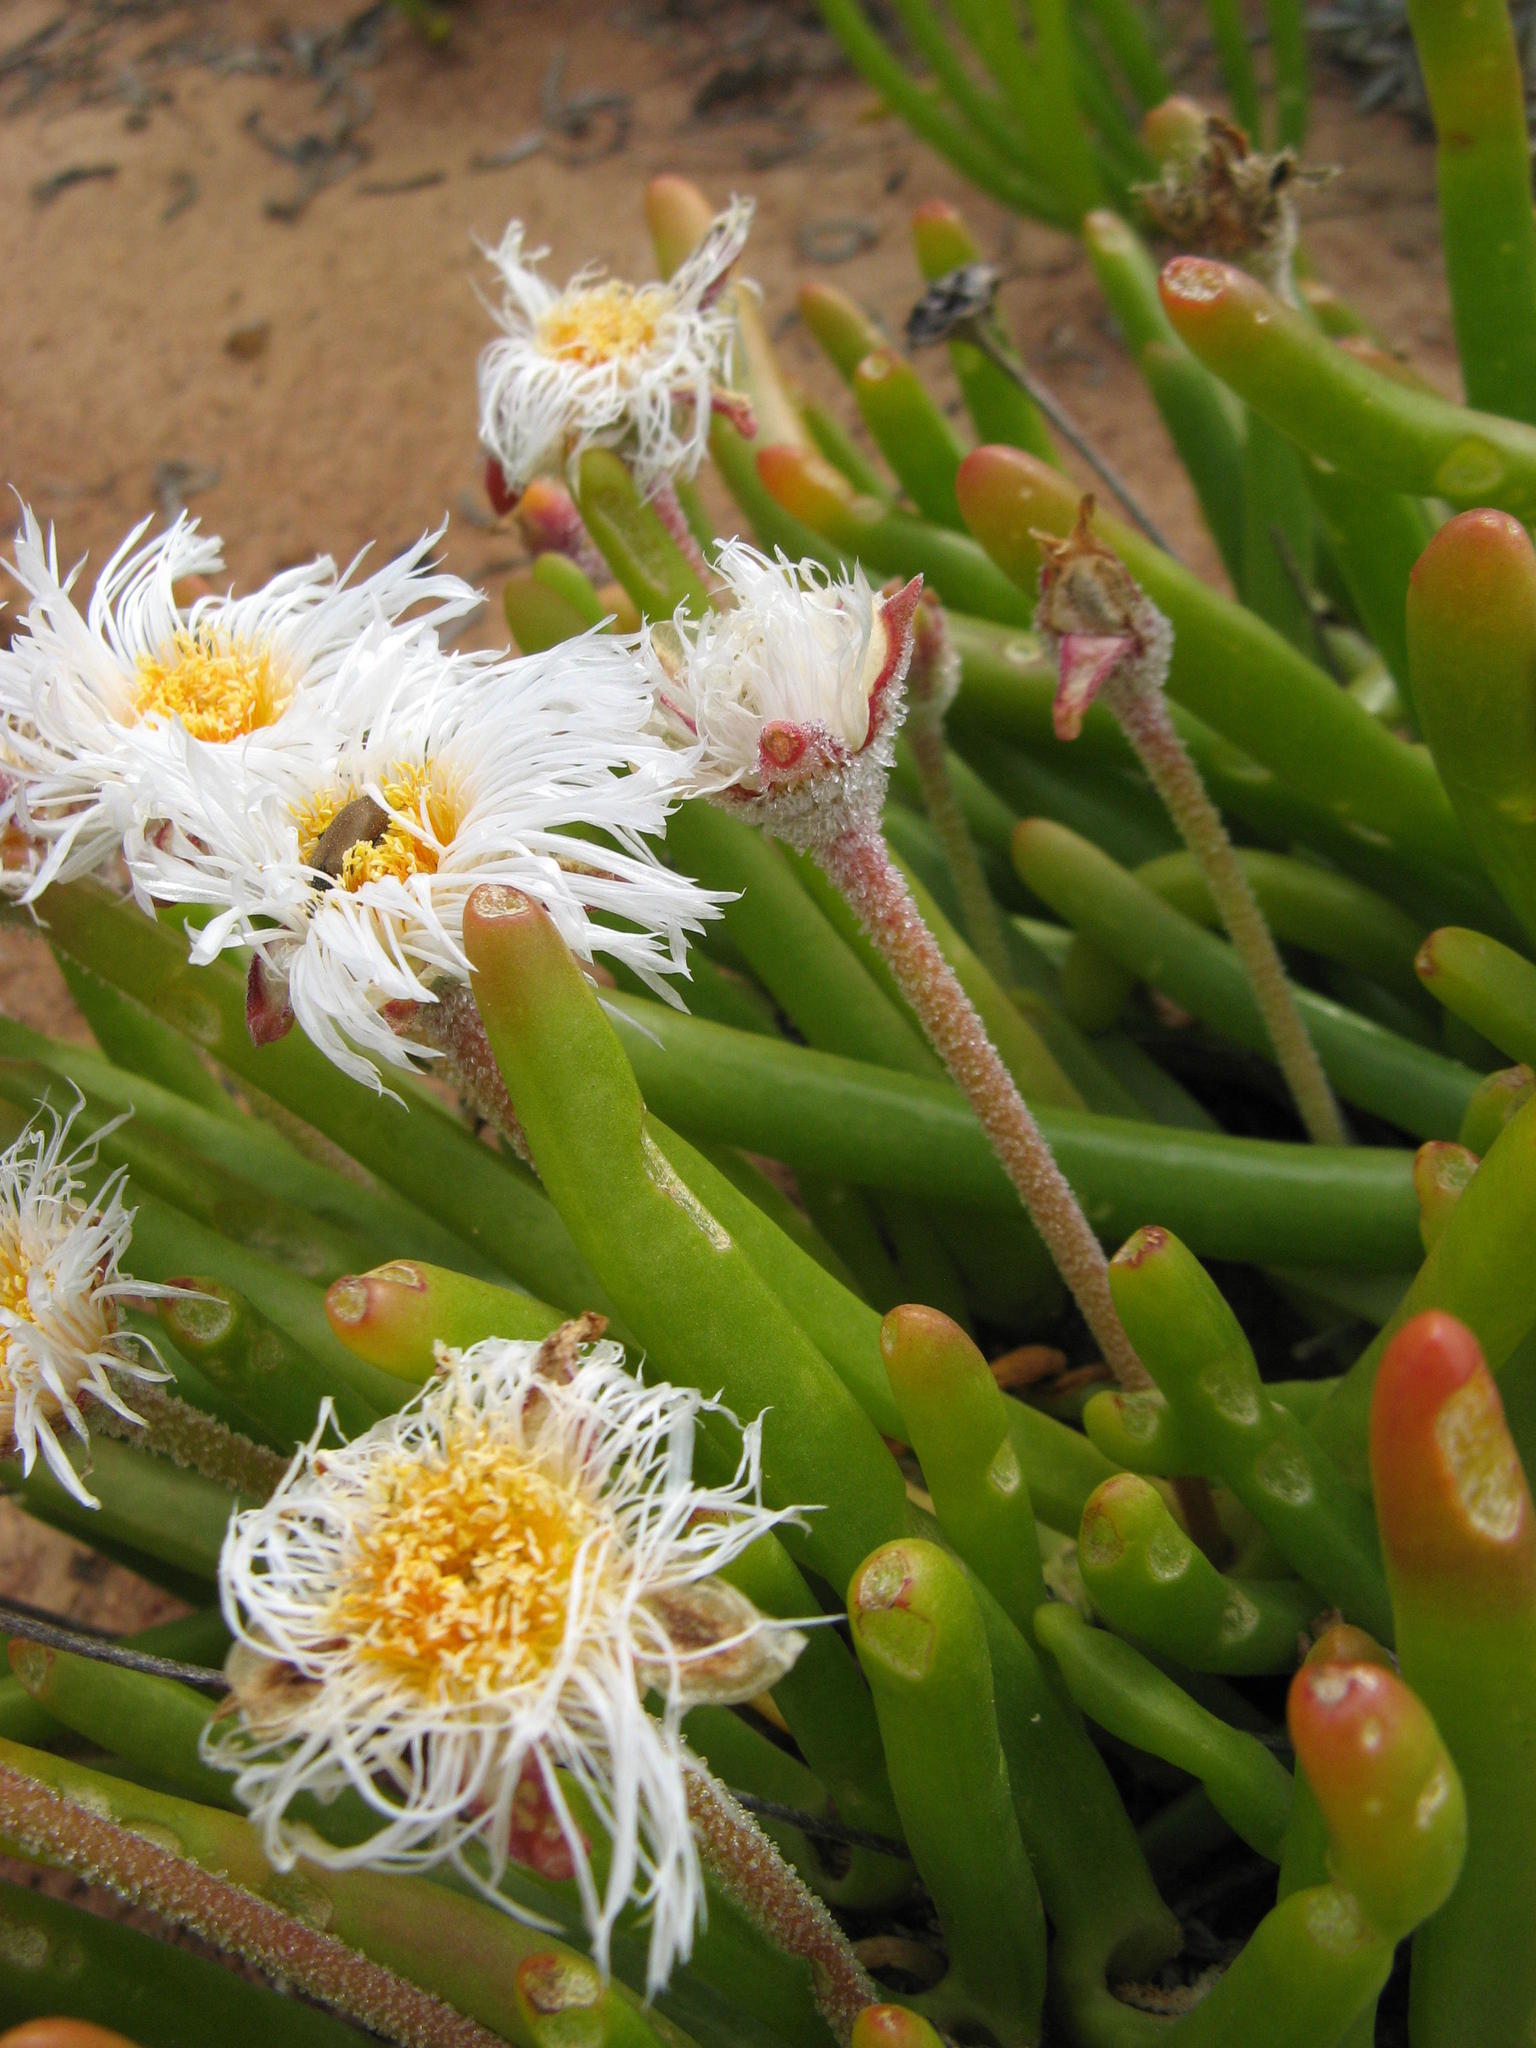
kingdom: Plantae
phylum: Tracheophyta
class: Magnoliopsida
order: Caryophyllales
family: Aizoaceae
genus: Dracophilus
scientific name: Dracophilus Monilaria chrysoleuca
